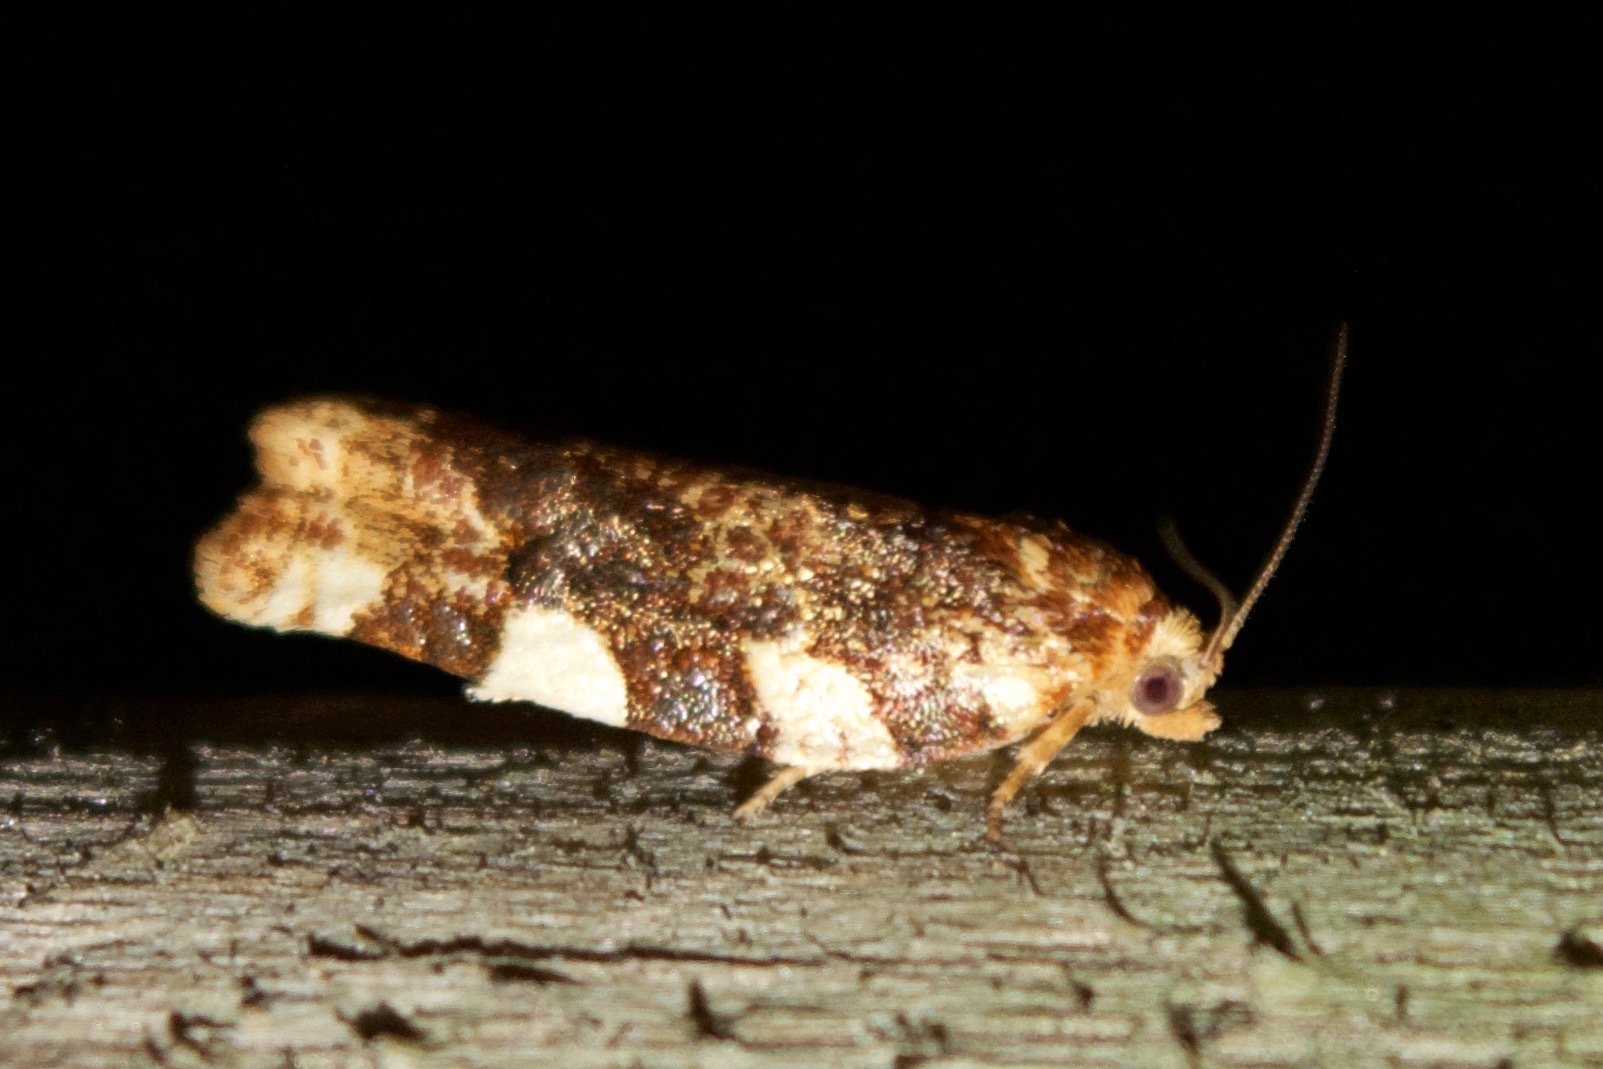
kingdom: Animalia
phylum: Arthropoda
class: Insecta
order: Lepidoptera
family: Tortricidae
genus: Archips
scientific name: Archips argyrospila
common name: Fruit-tree leafroller moth
